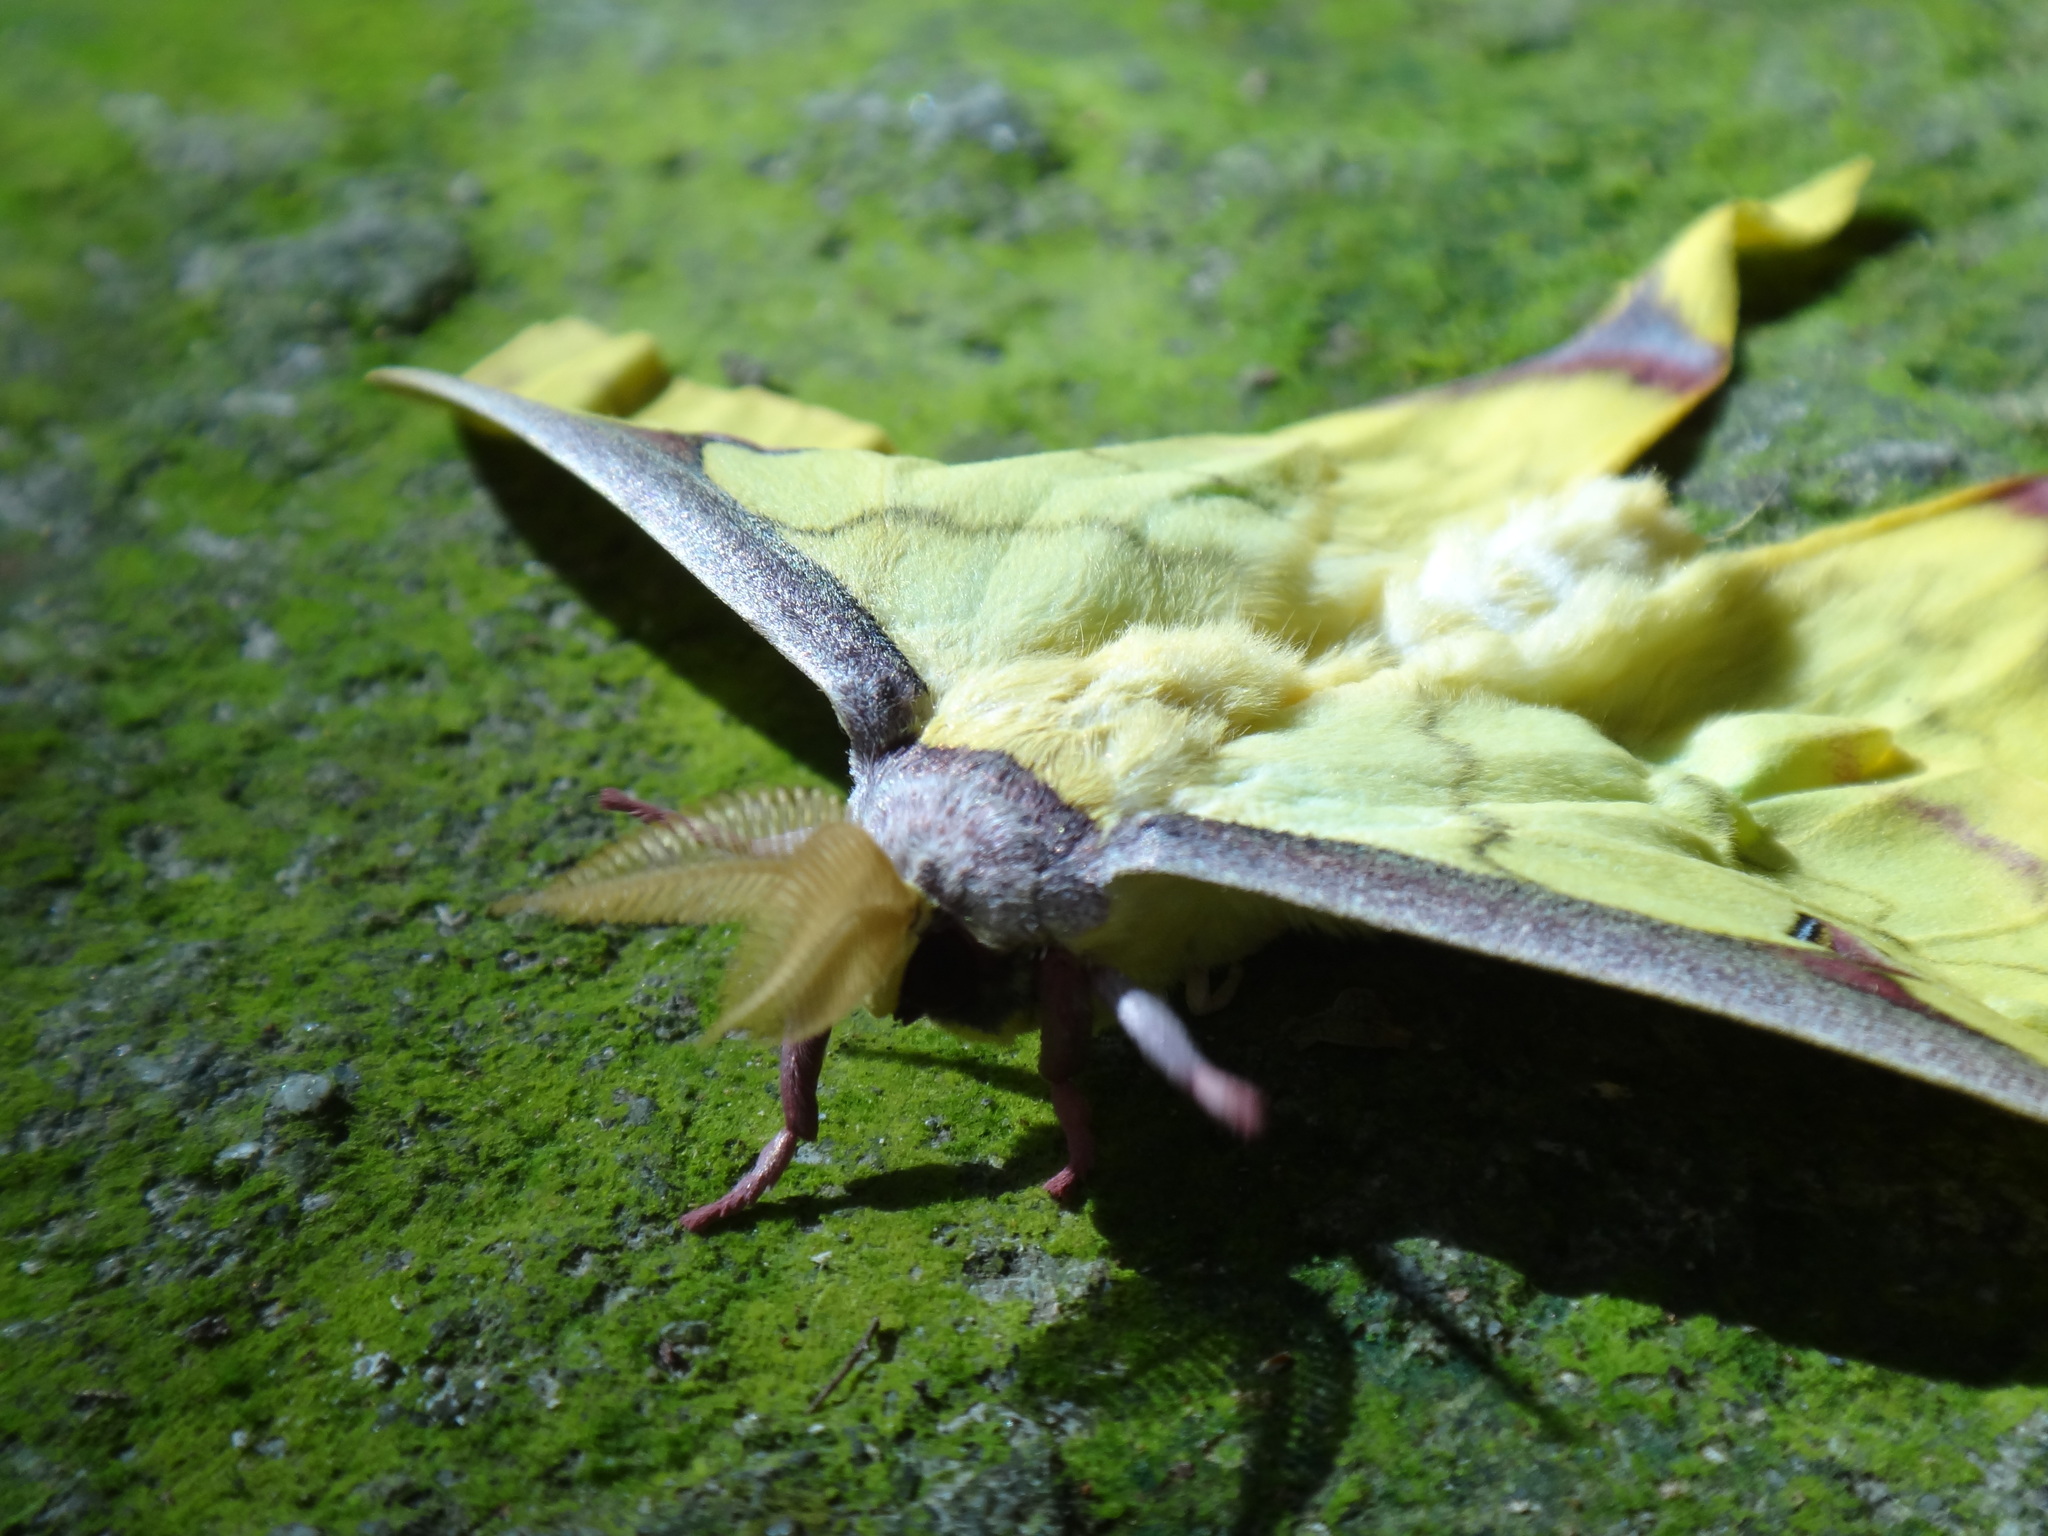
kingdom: Animalia
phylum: Arthropoda
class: Insecta
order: Lepidoptera
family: Saturniidae
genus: Actias
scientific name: Actias sinensis
